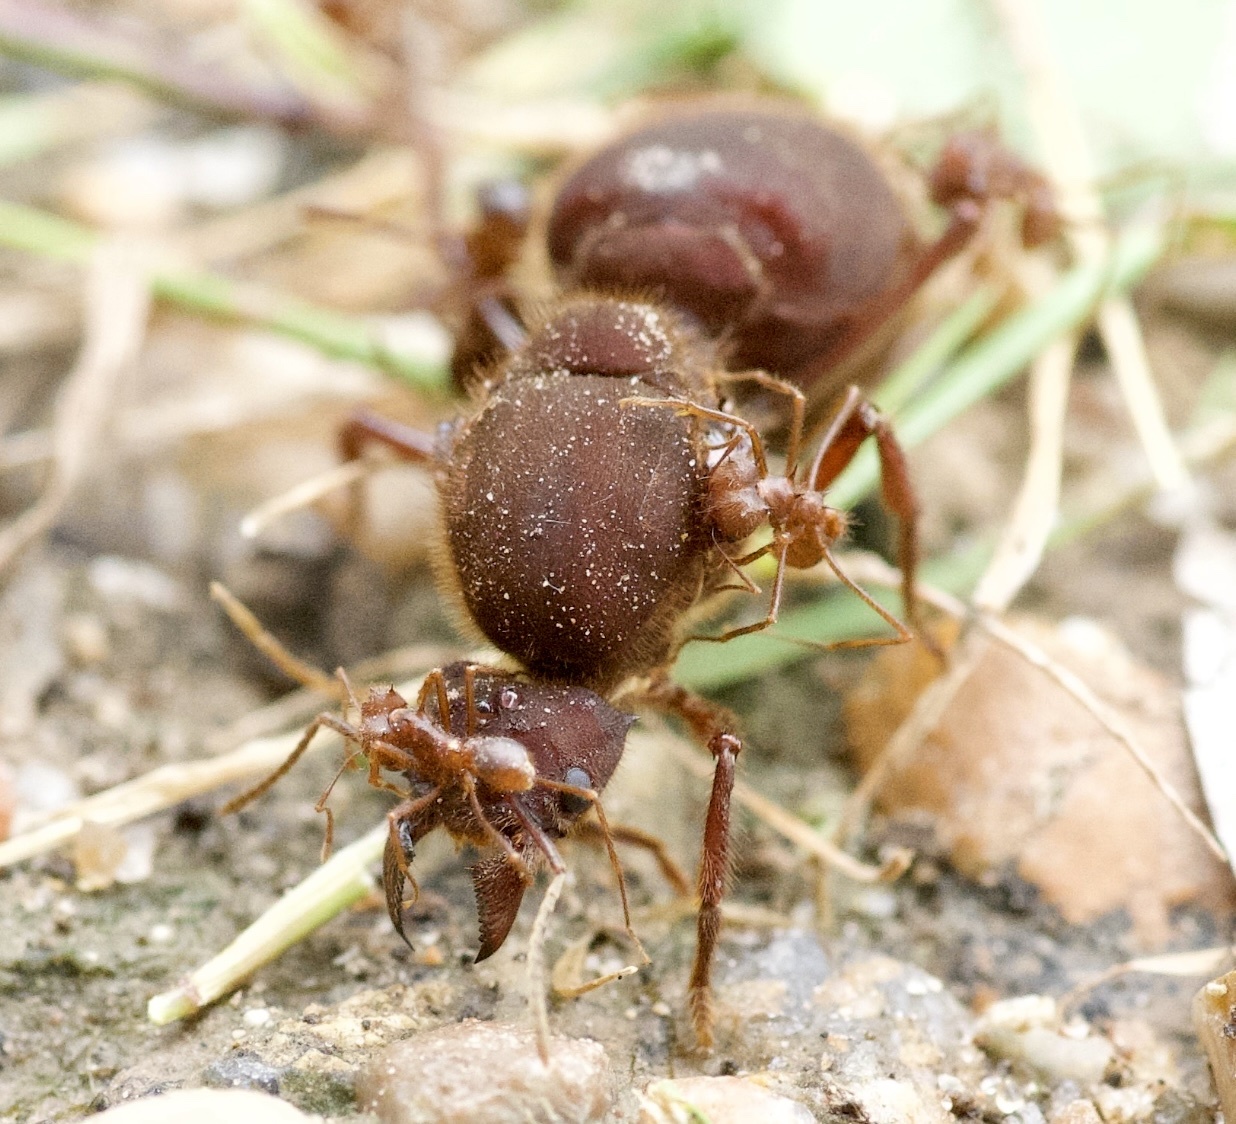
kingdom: Animalia
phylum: Arthropoda
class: Insecta
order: Hymenoptera
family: Formicidae
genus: Atta
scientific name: Atta texana
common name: Texas leafcutting ant
